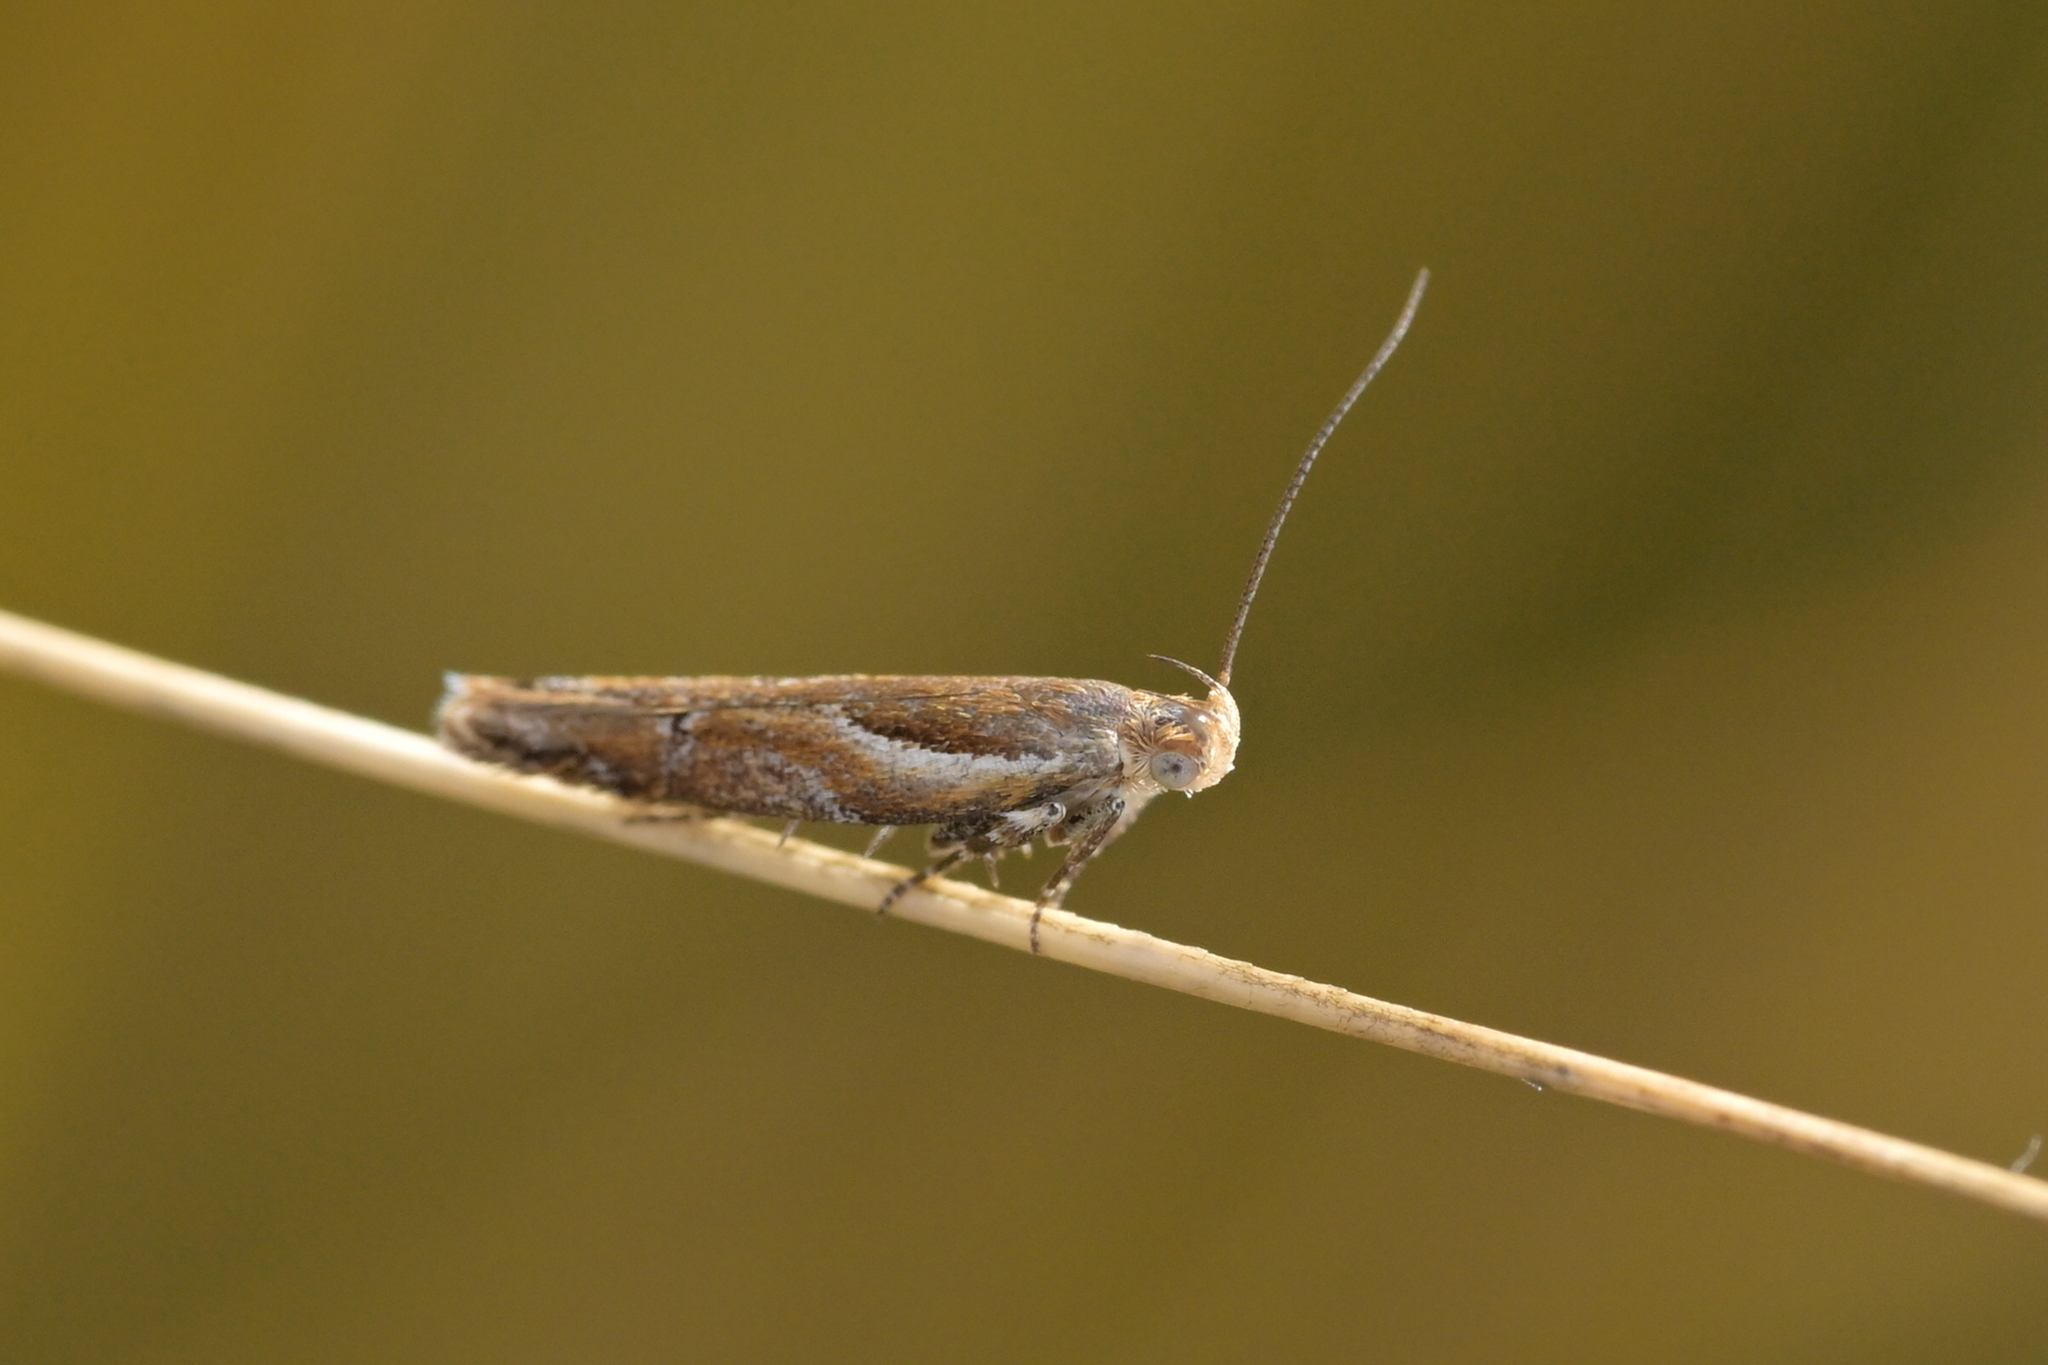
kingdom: Animalia
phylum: Arthropoda
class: Insecta
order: Lepidoptera
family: Depressariidae
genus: Eutorna
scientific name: Eutorna caryochroa
